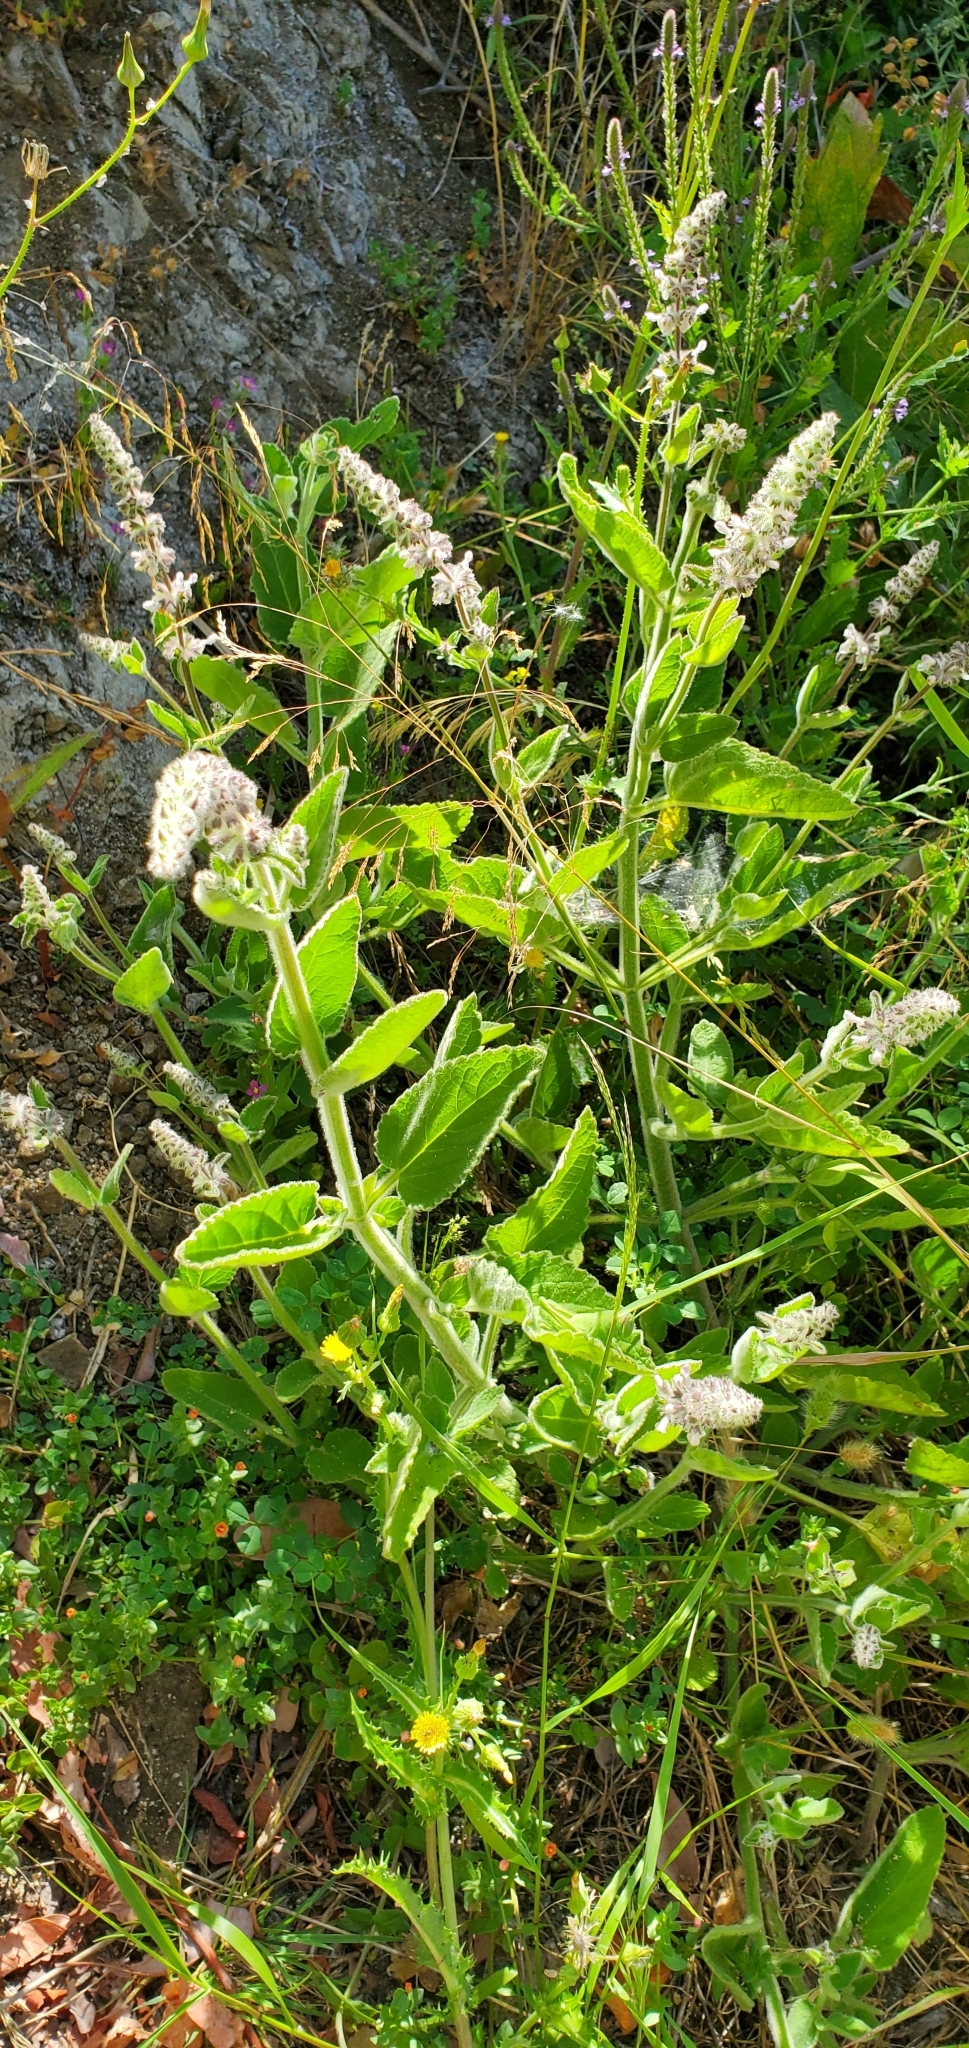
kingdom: Plantae
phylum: Tracheophyta
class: Magnoliopsida
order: Lamiales
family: Lamiaceae
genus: Stachys
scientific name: Stachys albens
